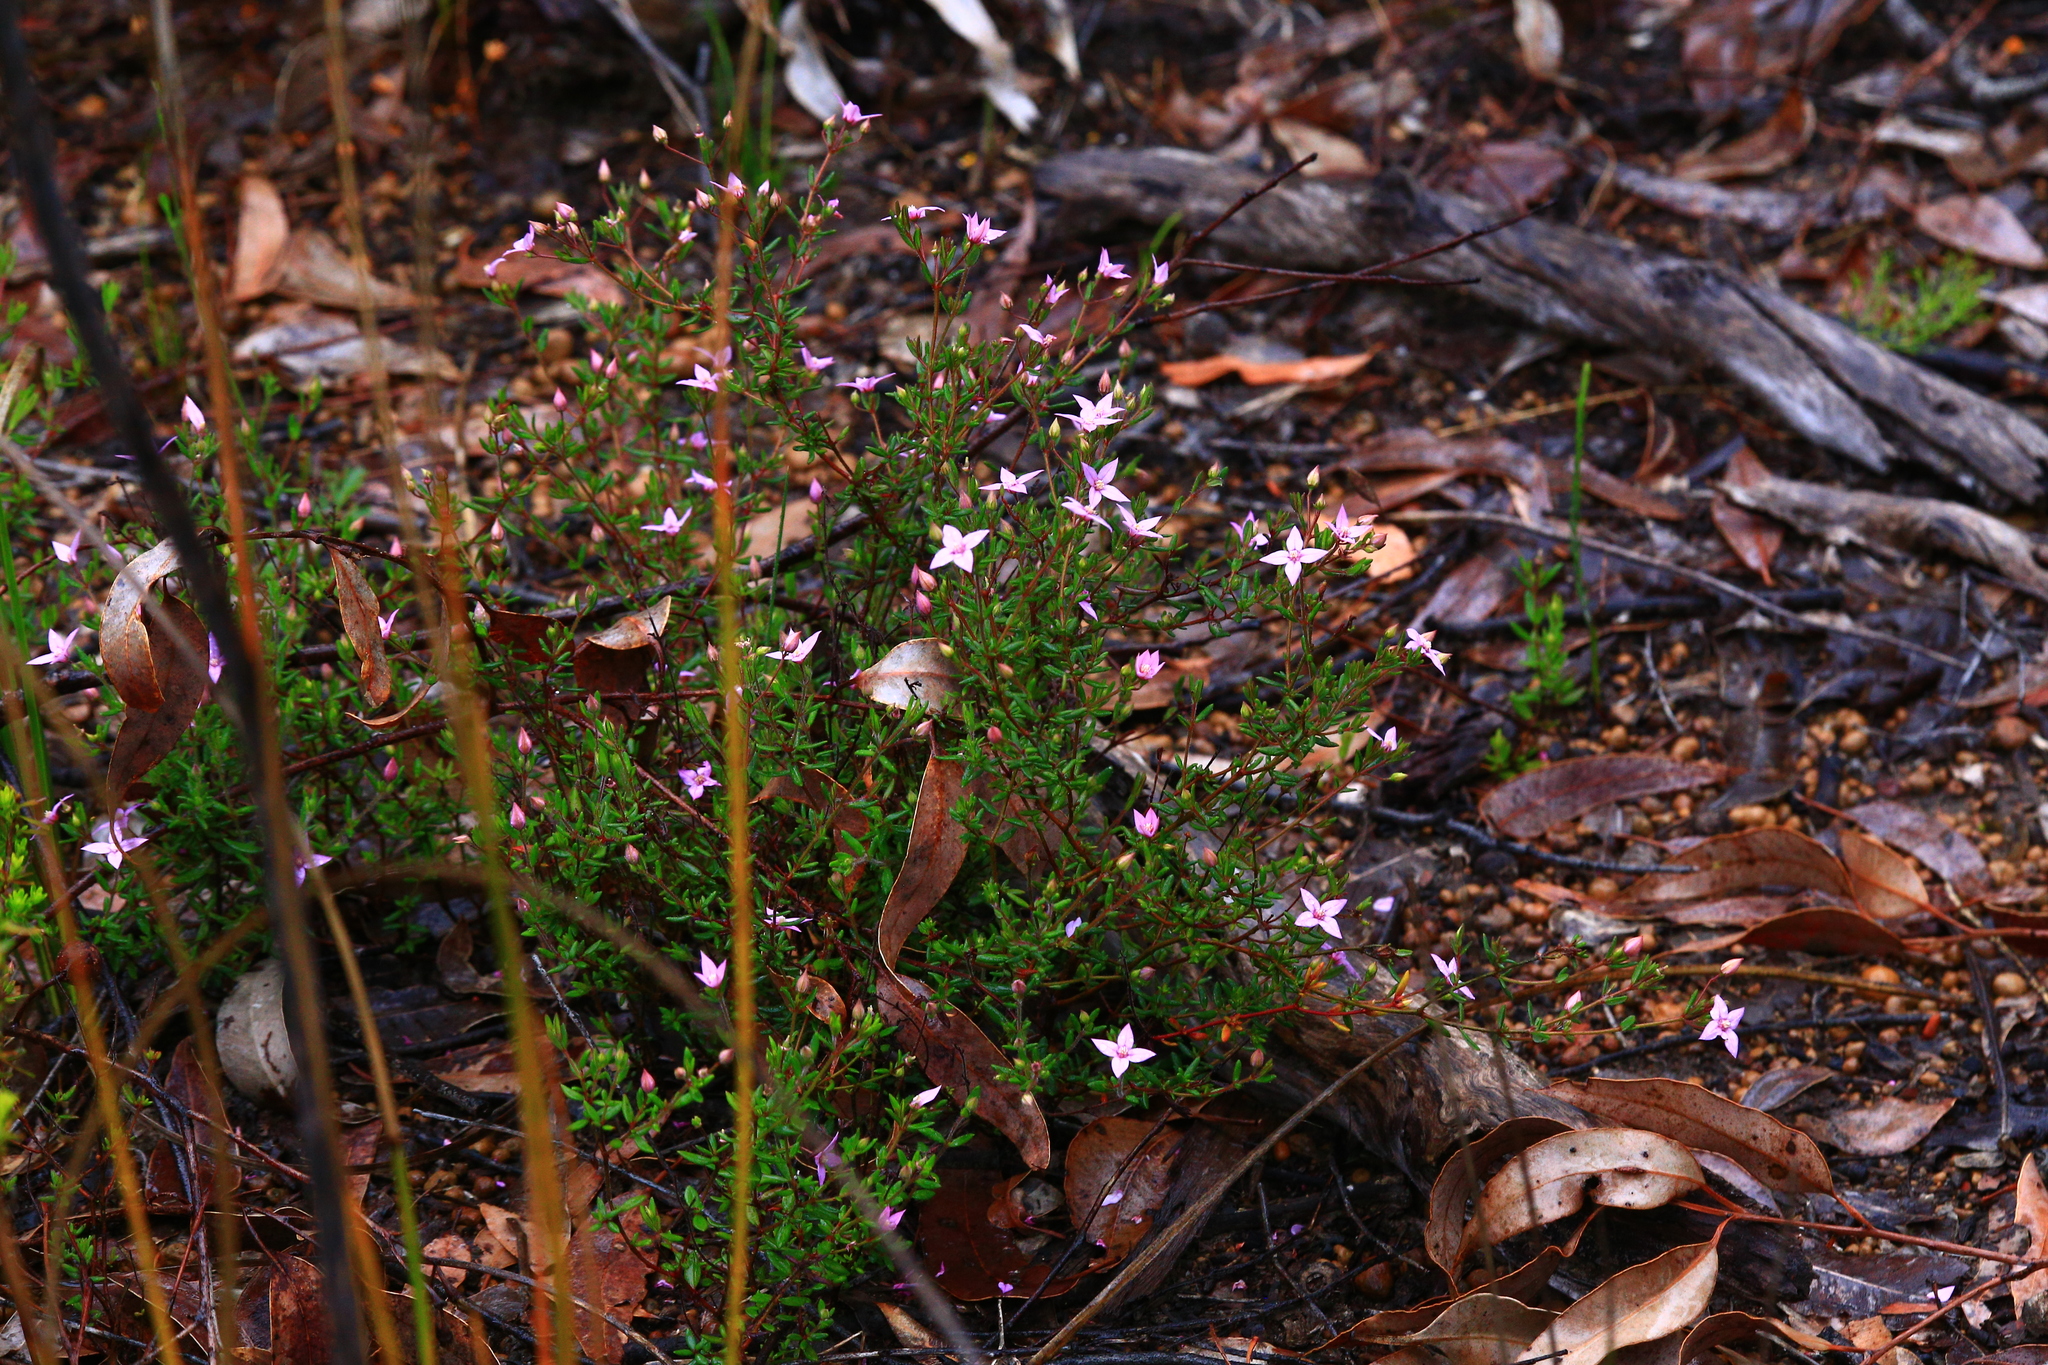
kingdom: Plantae
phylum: Tracheophyta
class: Magnoliopsida
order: Sapindales
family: Rutaceae
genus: Boronia
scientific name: Boronia scabra
